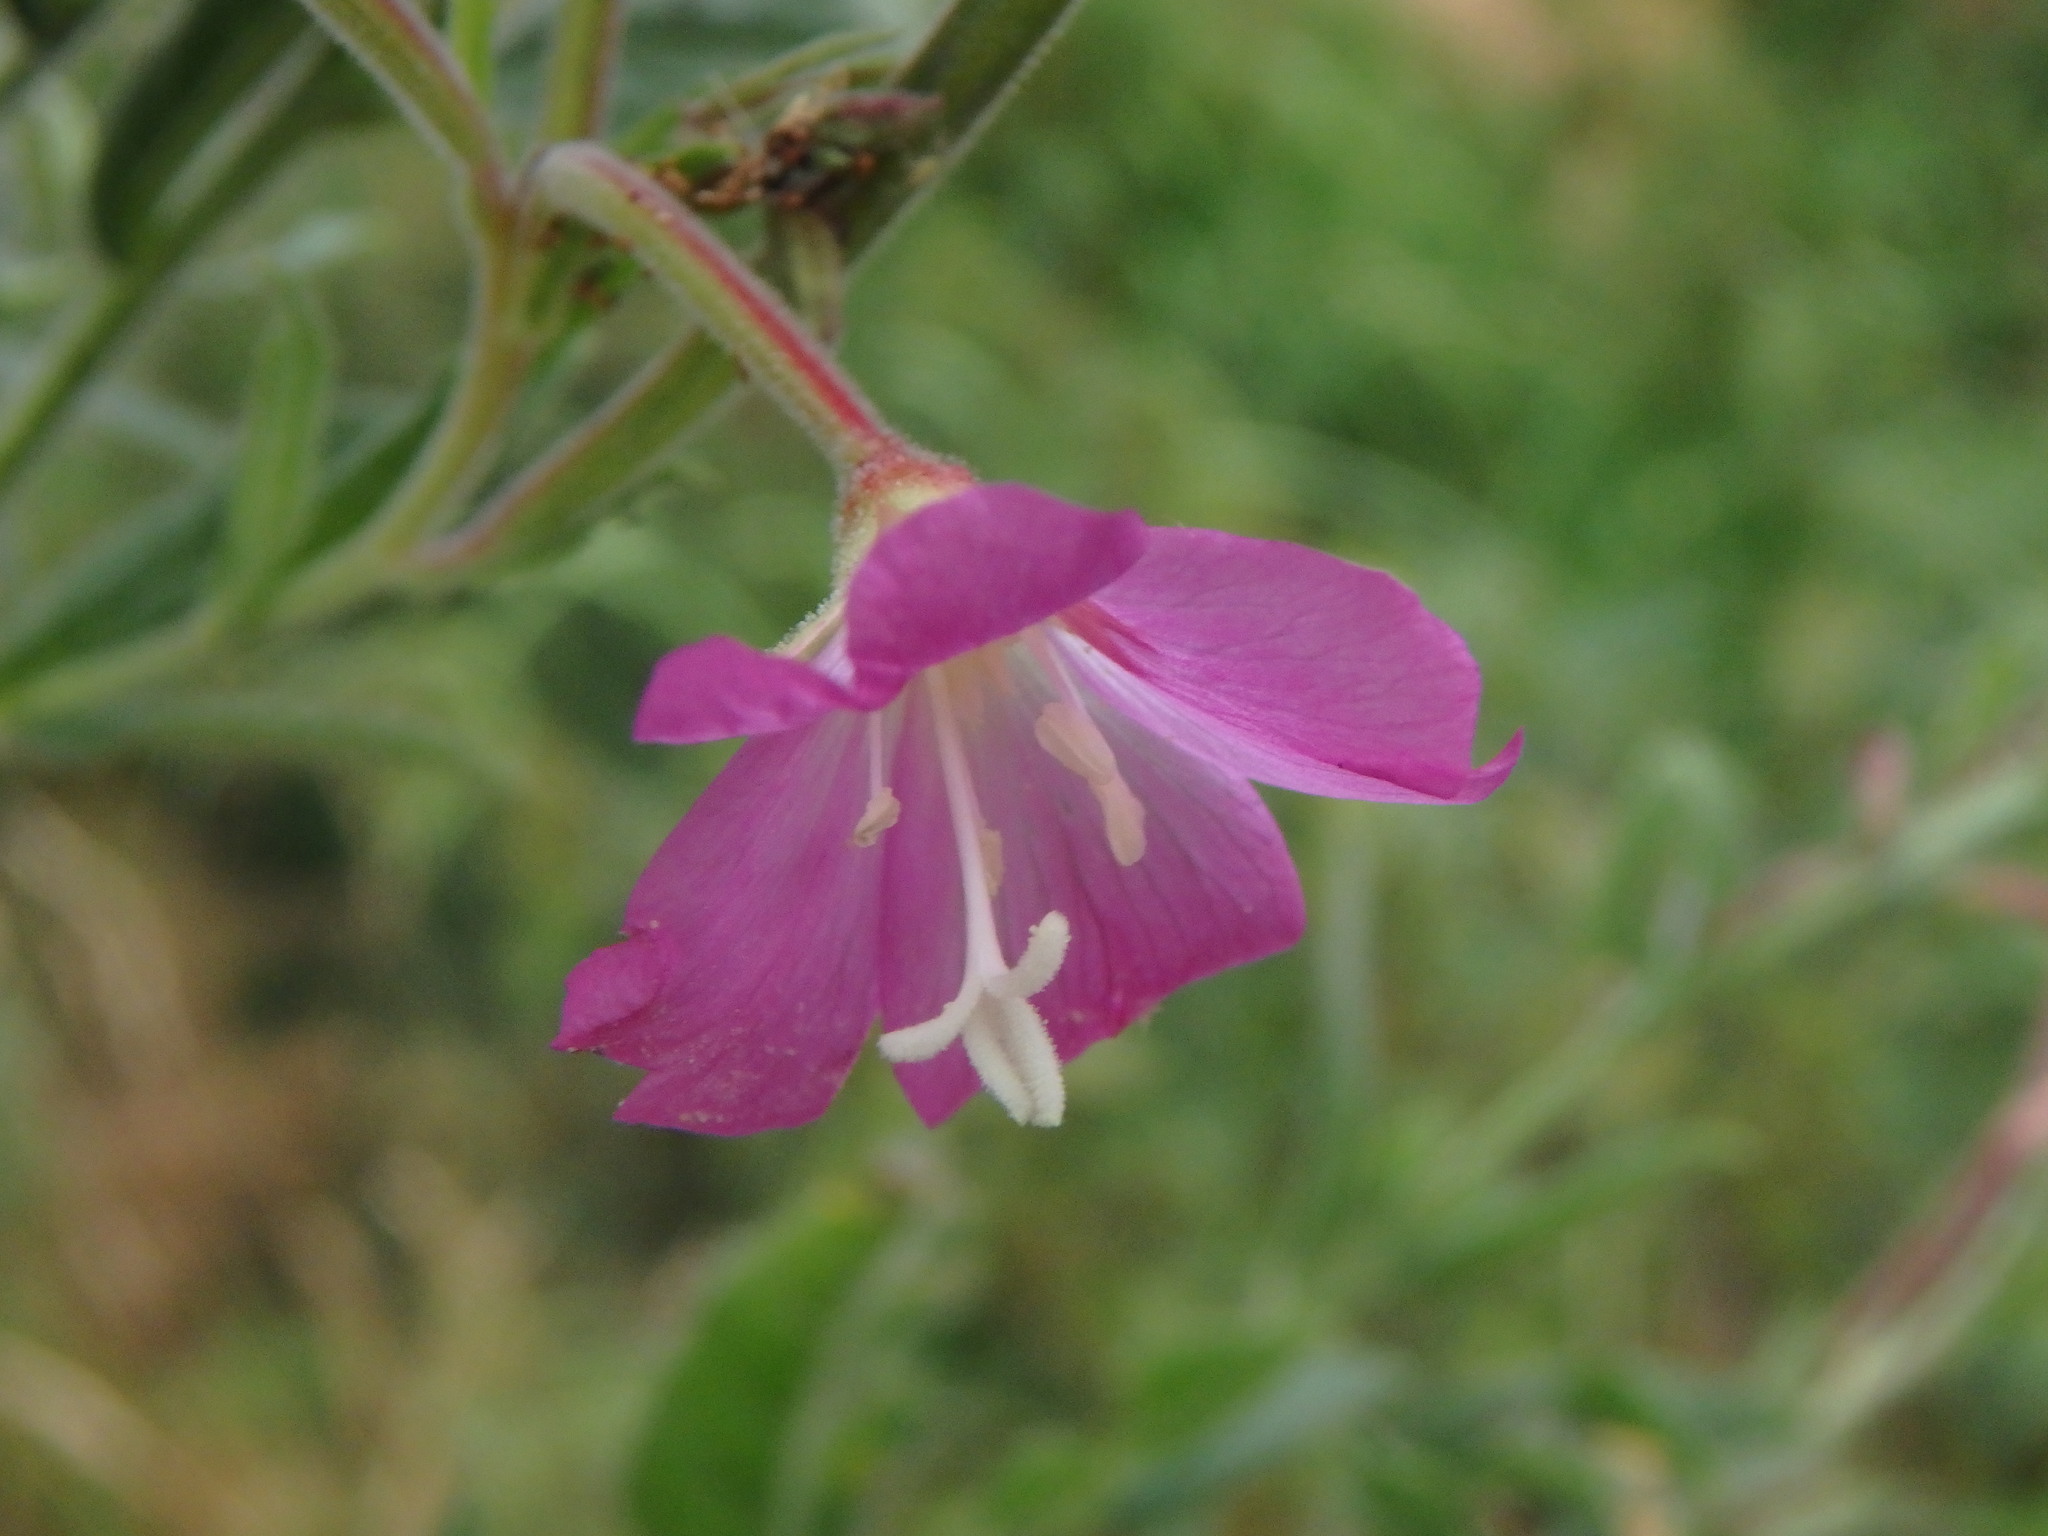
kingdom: Plantae
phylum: Tracheophyta
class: Magnoliopsida
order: Myrtales
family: Onagraceae
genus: Epilobium
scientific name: Epilobium hirsutum
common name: Great willowherb
